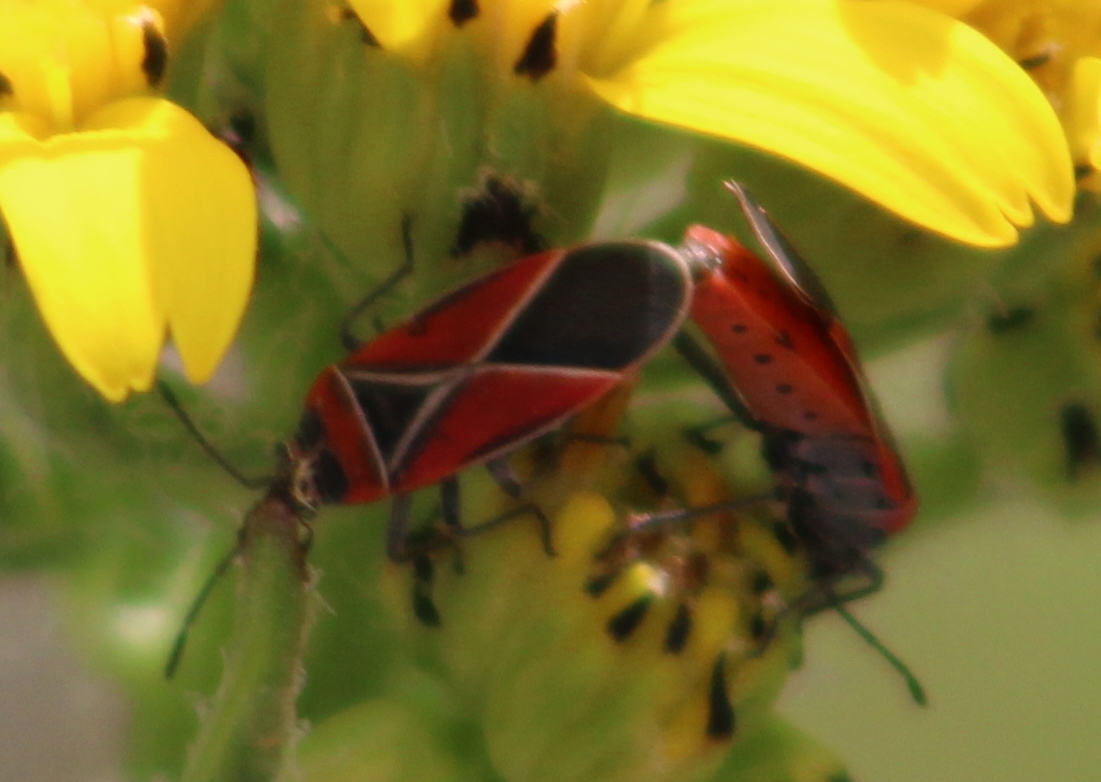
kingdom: Animalia
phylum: Arthropoda
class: Insecta
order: Hemiptera
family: Lygaeidae
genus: Neacoryphus
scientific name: Neacoryphus bicrucis
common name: Lygaeid bug
